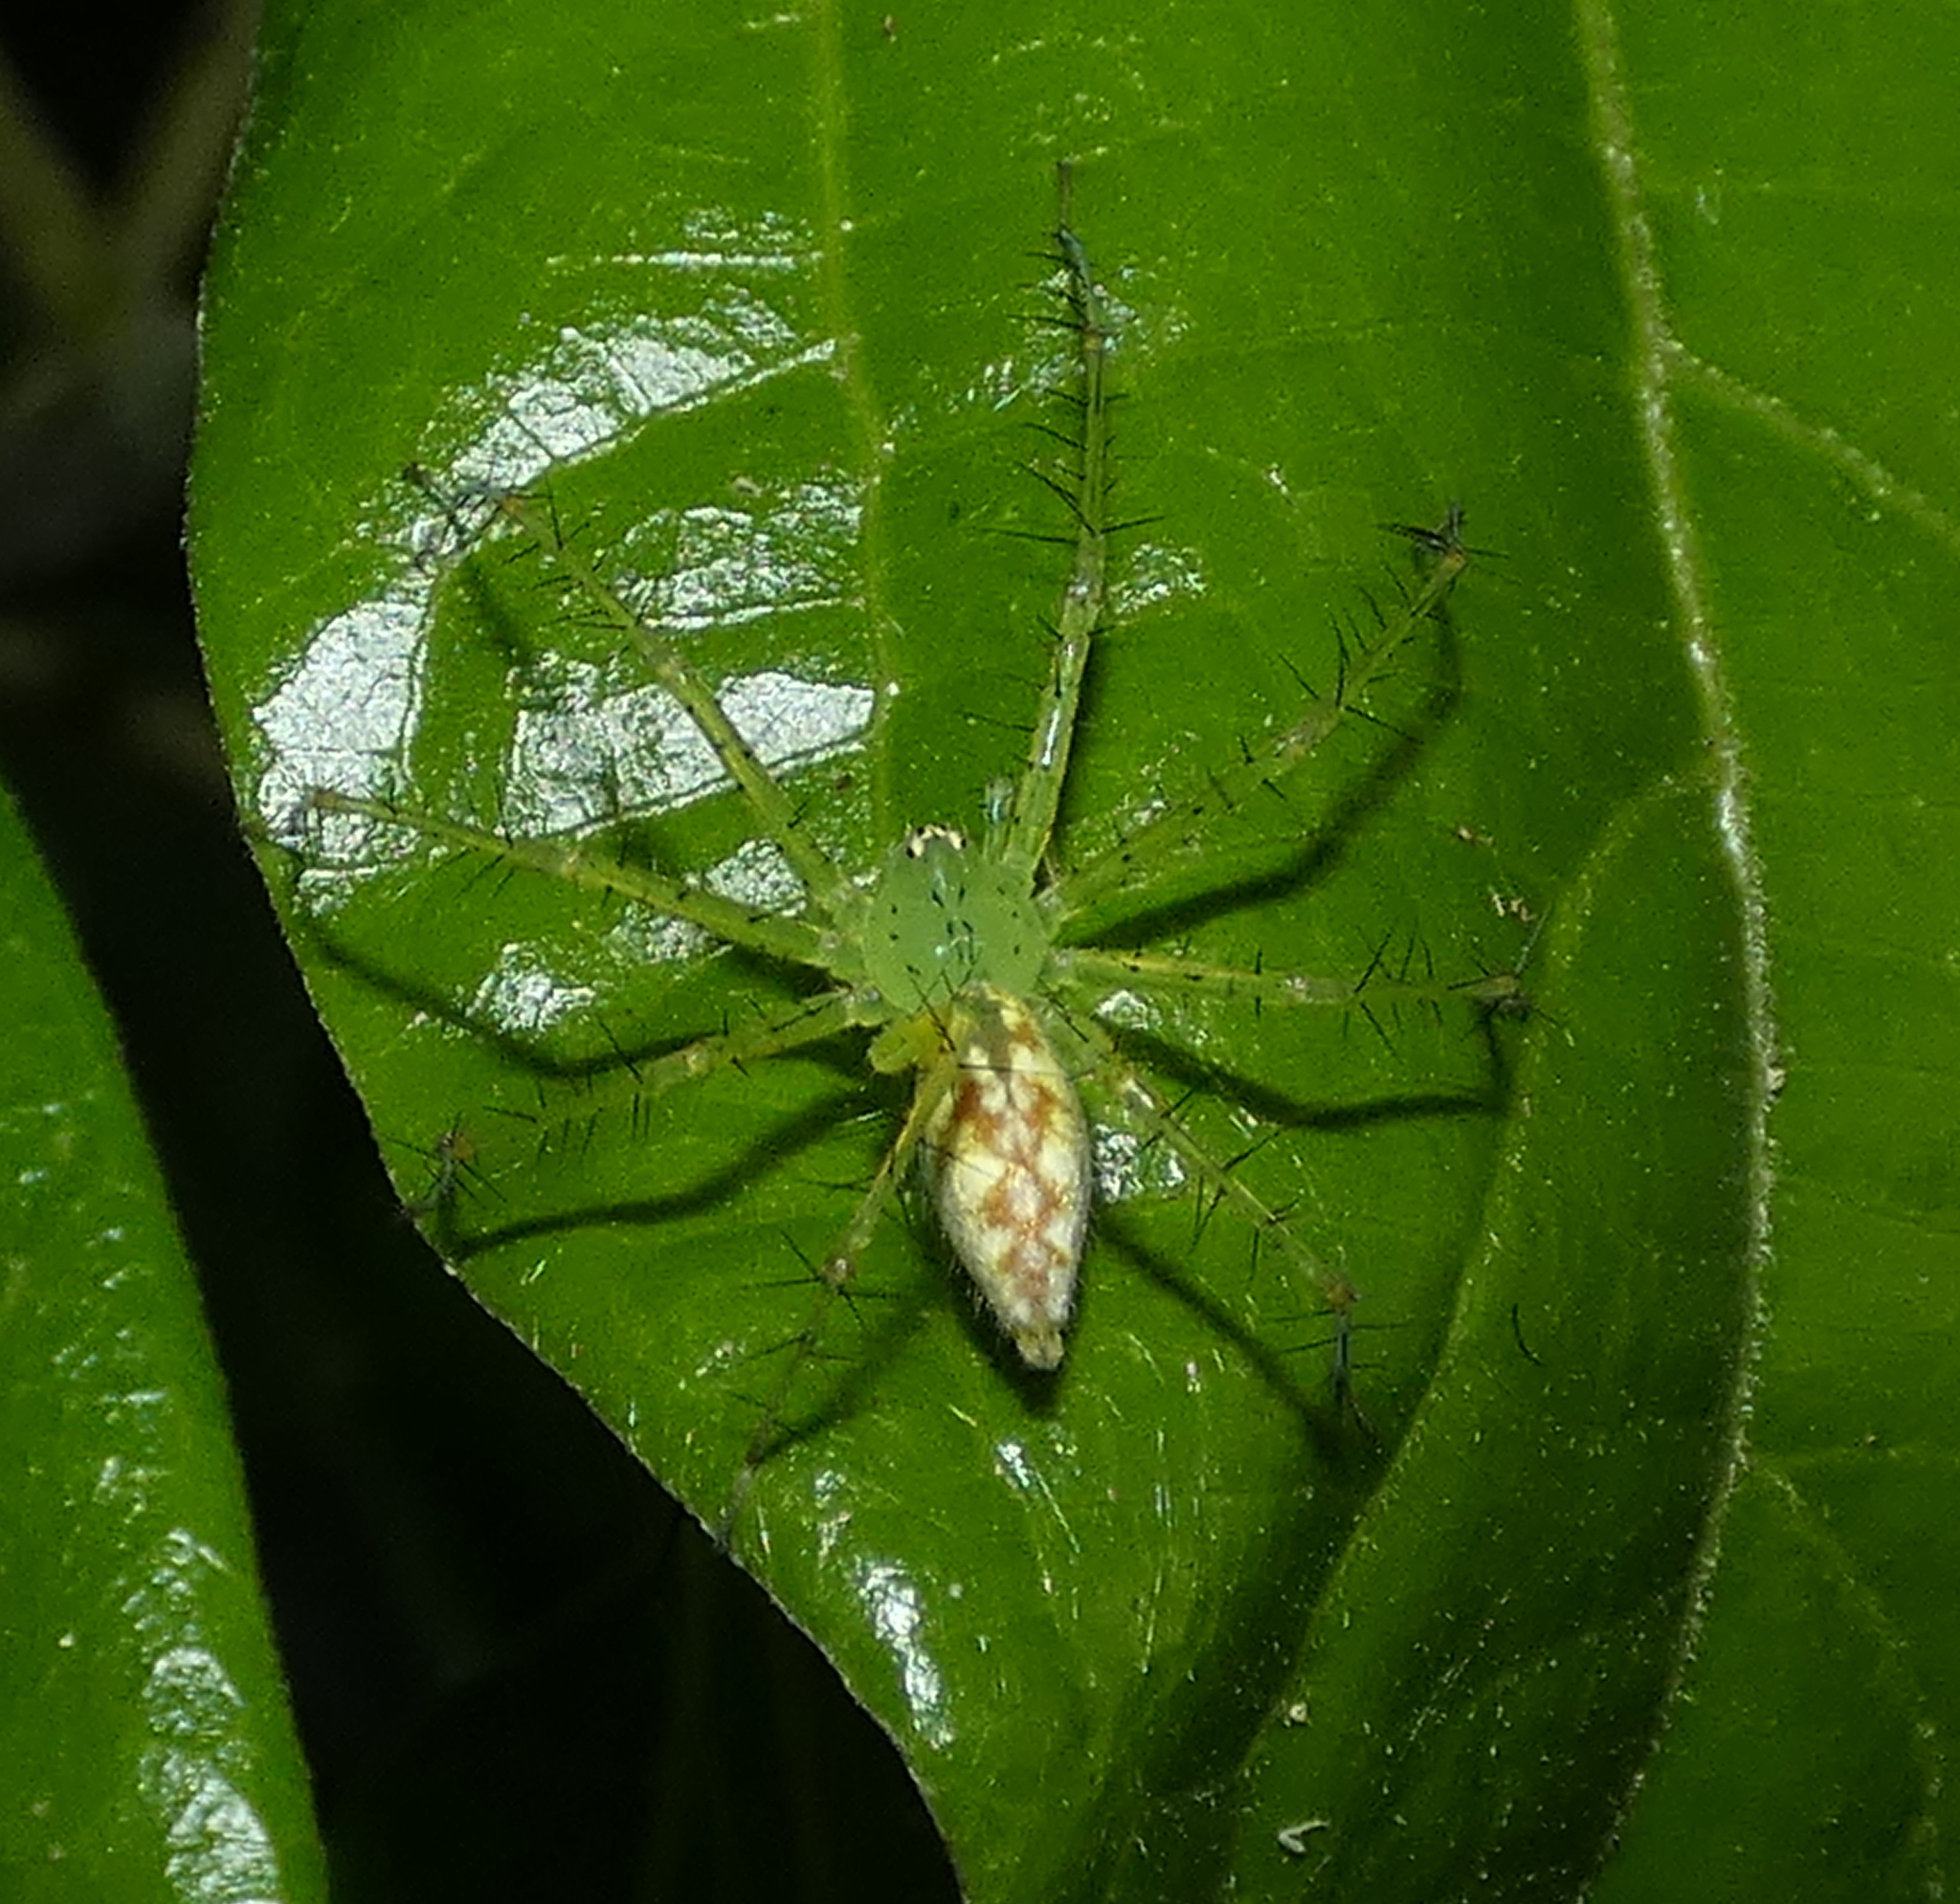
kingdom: Animalia
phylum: Arthropoda
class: Arachnida
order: Araneae
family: Pisauridae
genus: Architis
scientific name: Architis spinipes
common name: Nursery web spiders
